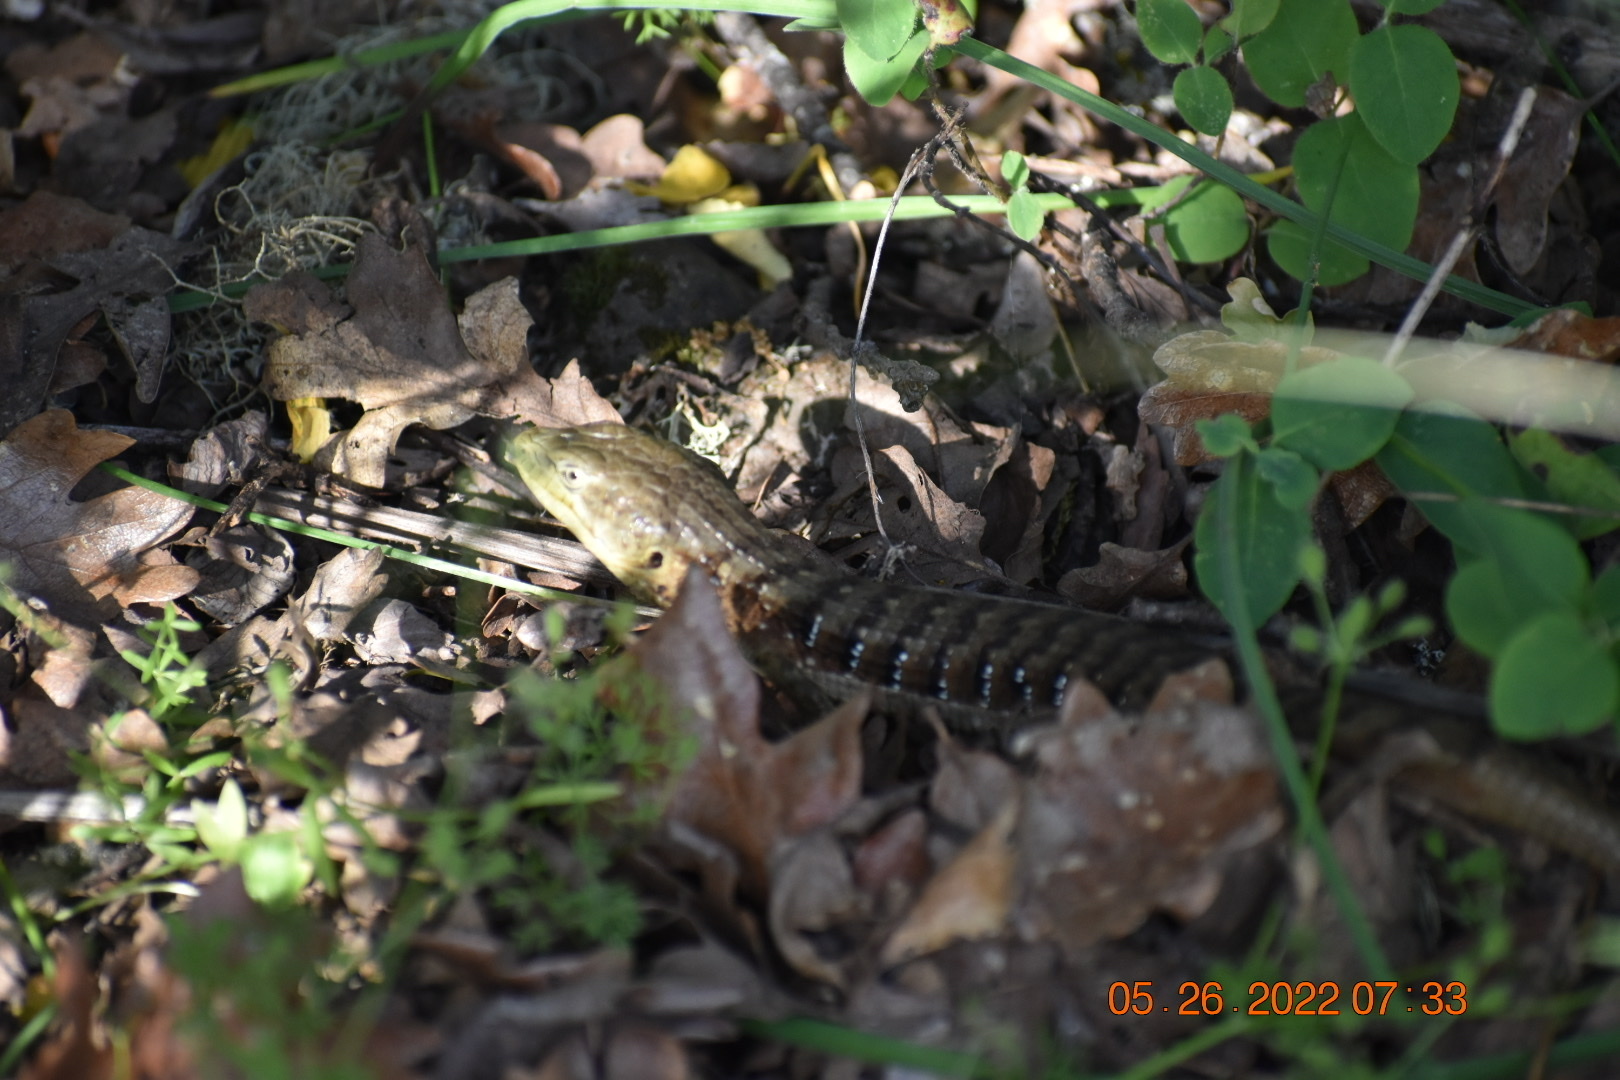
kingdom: Animalia
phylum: Chordata
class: Squamata
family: Anguidae
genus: Elgaria
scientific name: Elgaria multicarinata
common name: Southern alligator lizard
